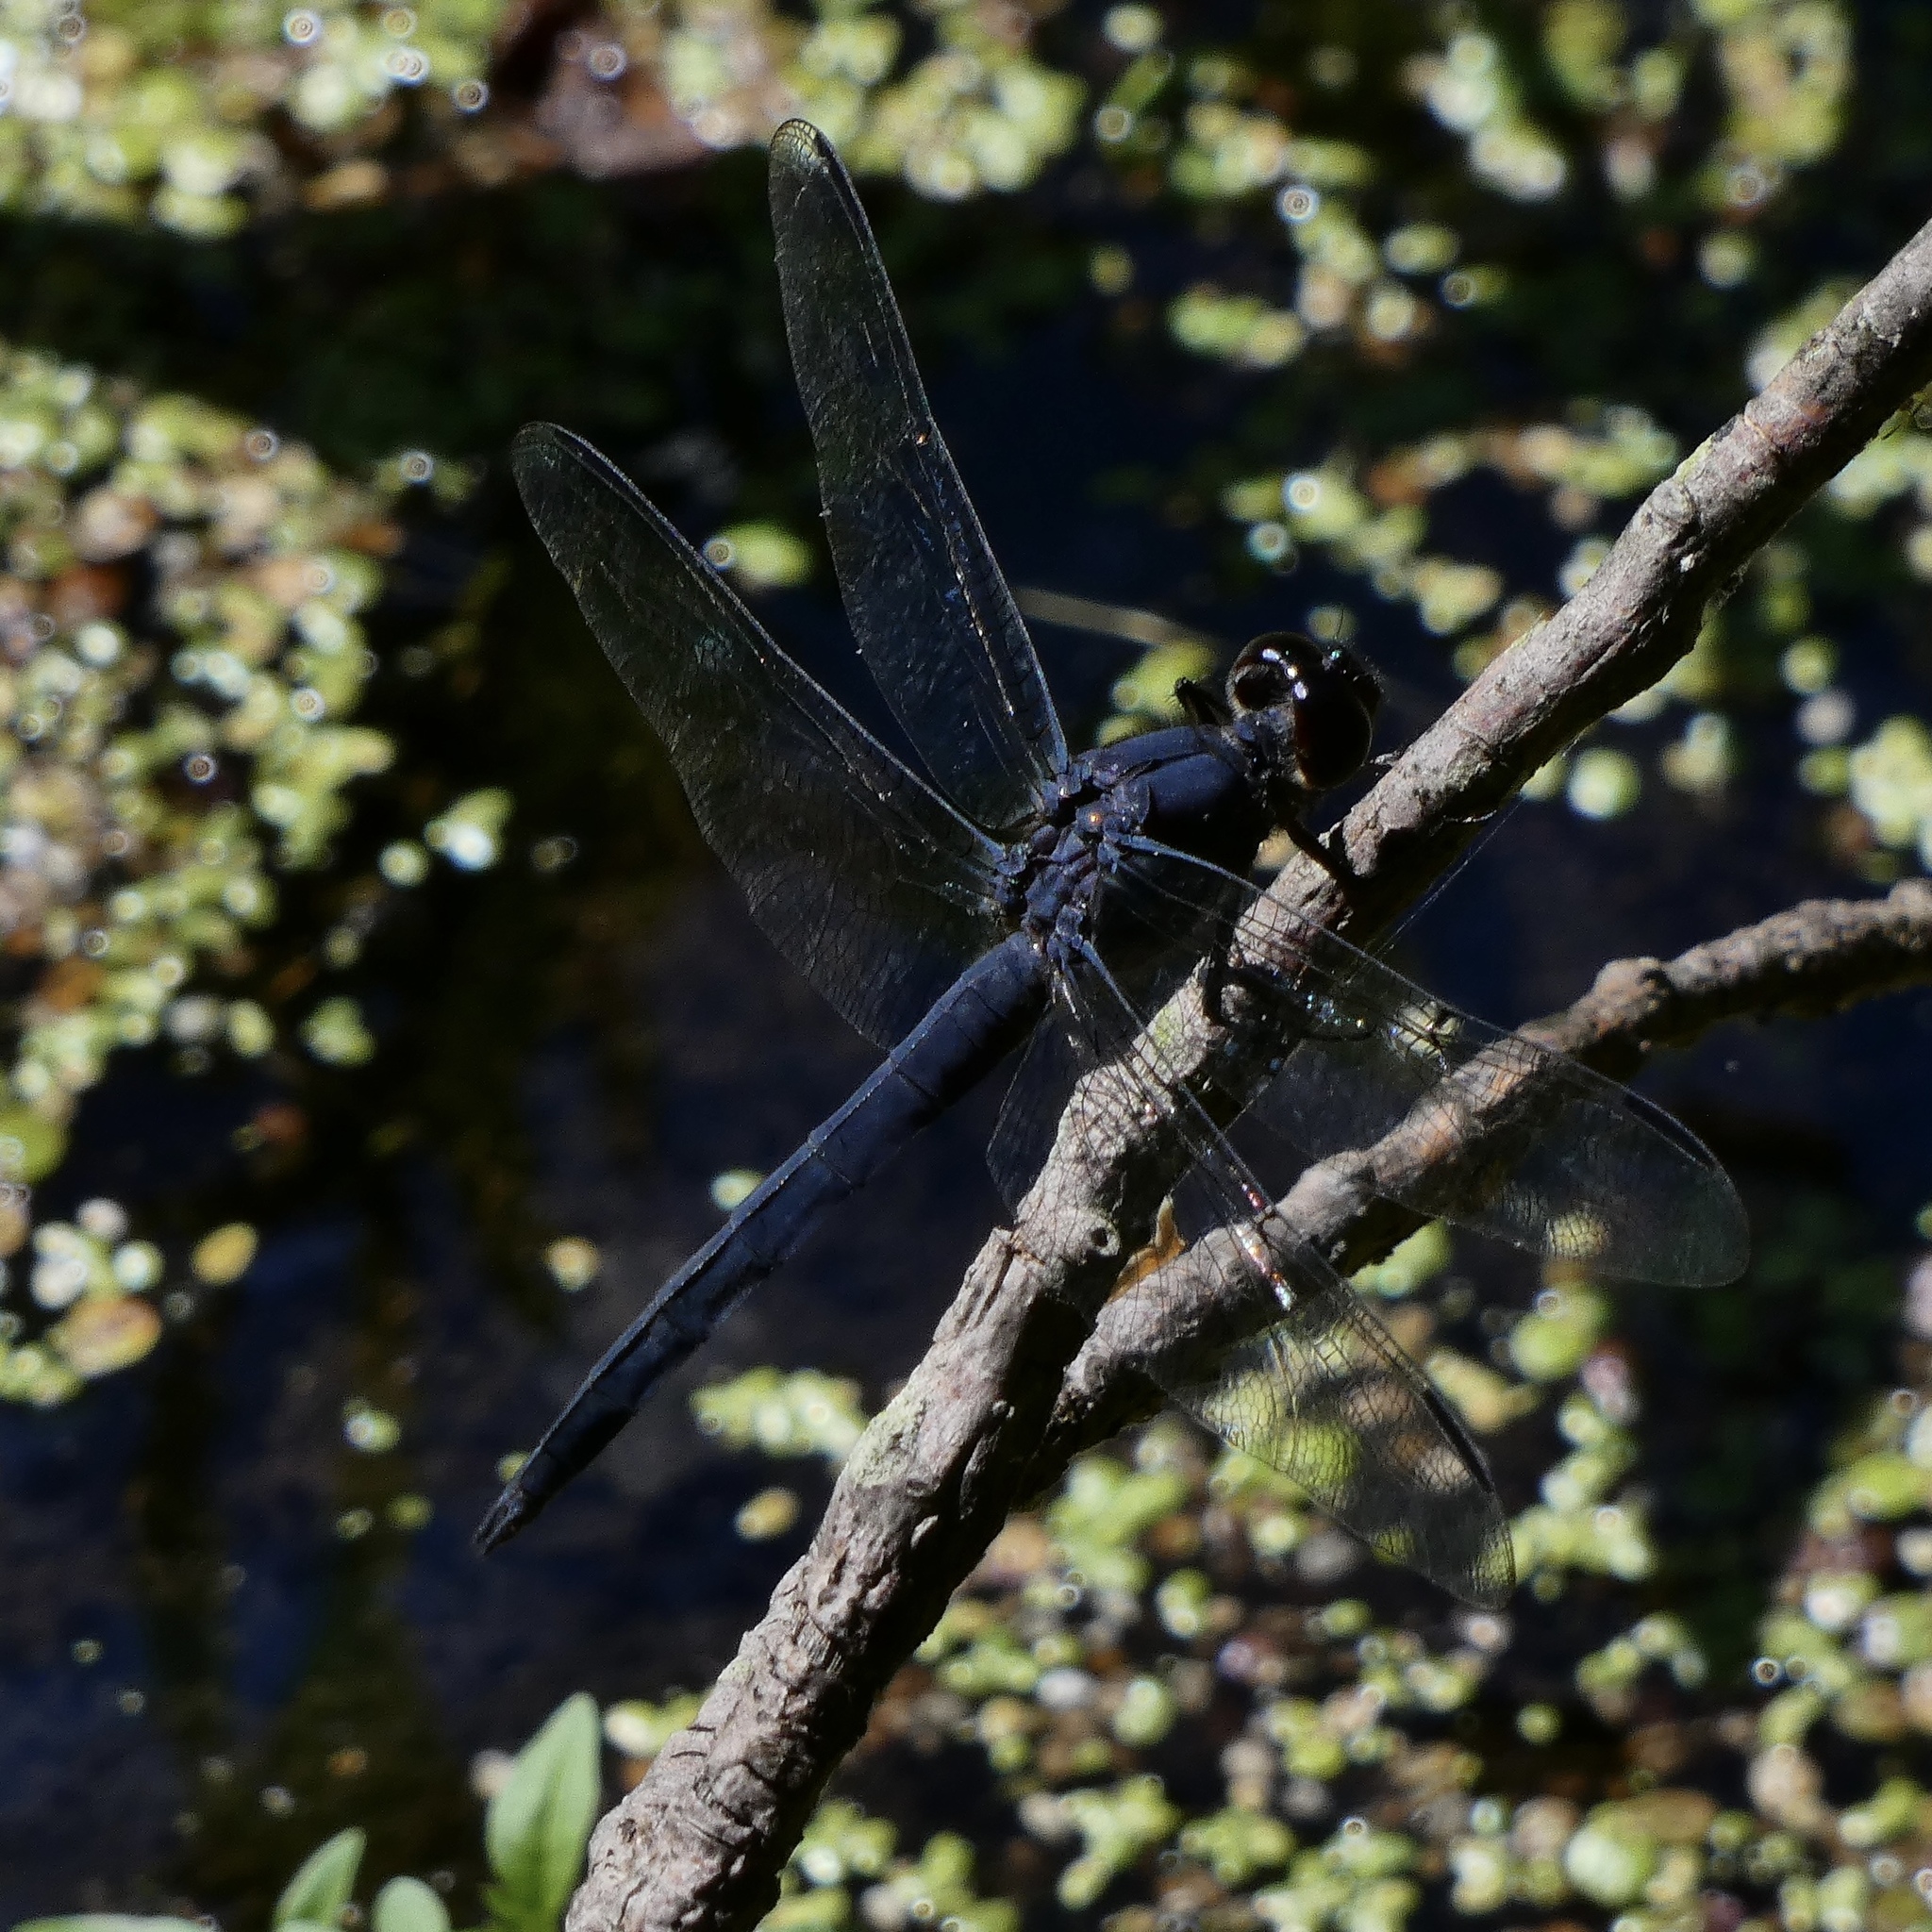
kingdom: Animalia
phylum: Arthropoda
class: Insecta
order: Odonata
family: Libellulidae
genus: Libellula
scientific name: Libellula incesta
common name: Slaty skimmer
